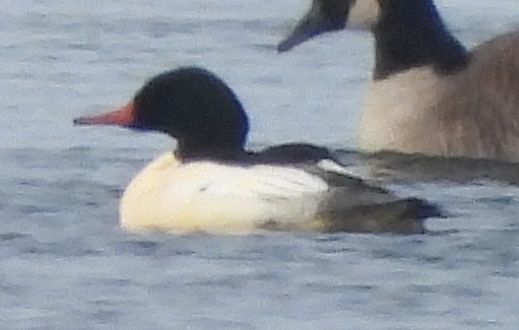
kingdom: Animalia
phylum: Chordata
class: Aves
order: Anseriformes
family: Anatidae
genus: Mergus
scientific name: Mergus merganser
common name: Common merganser
